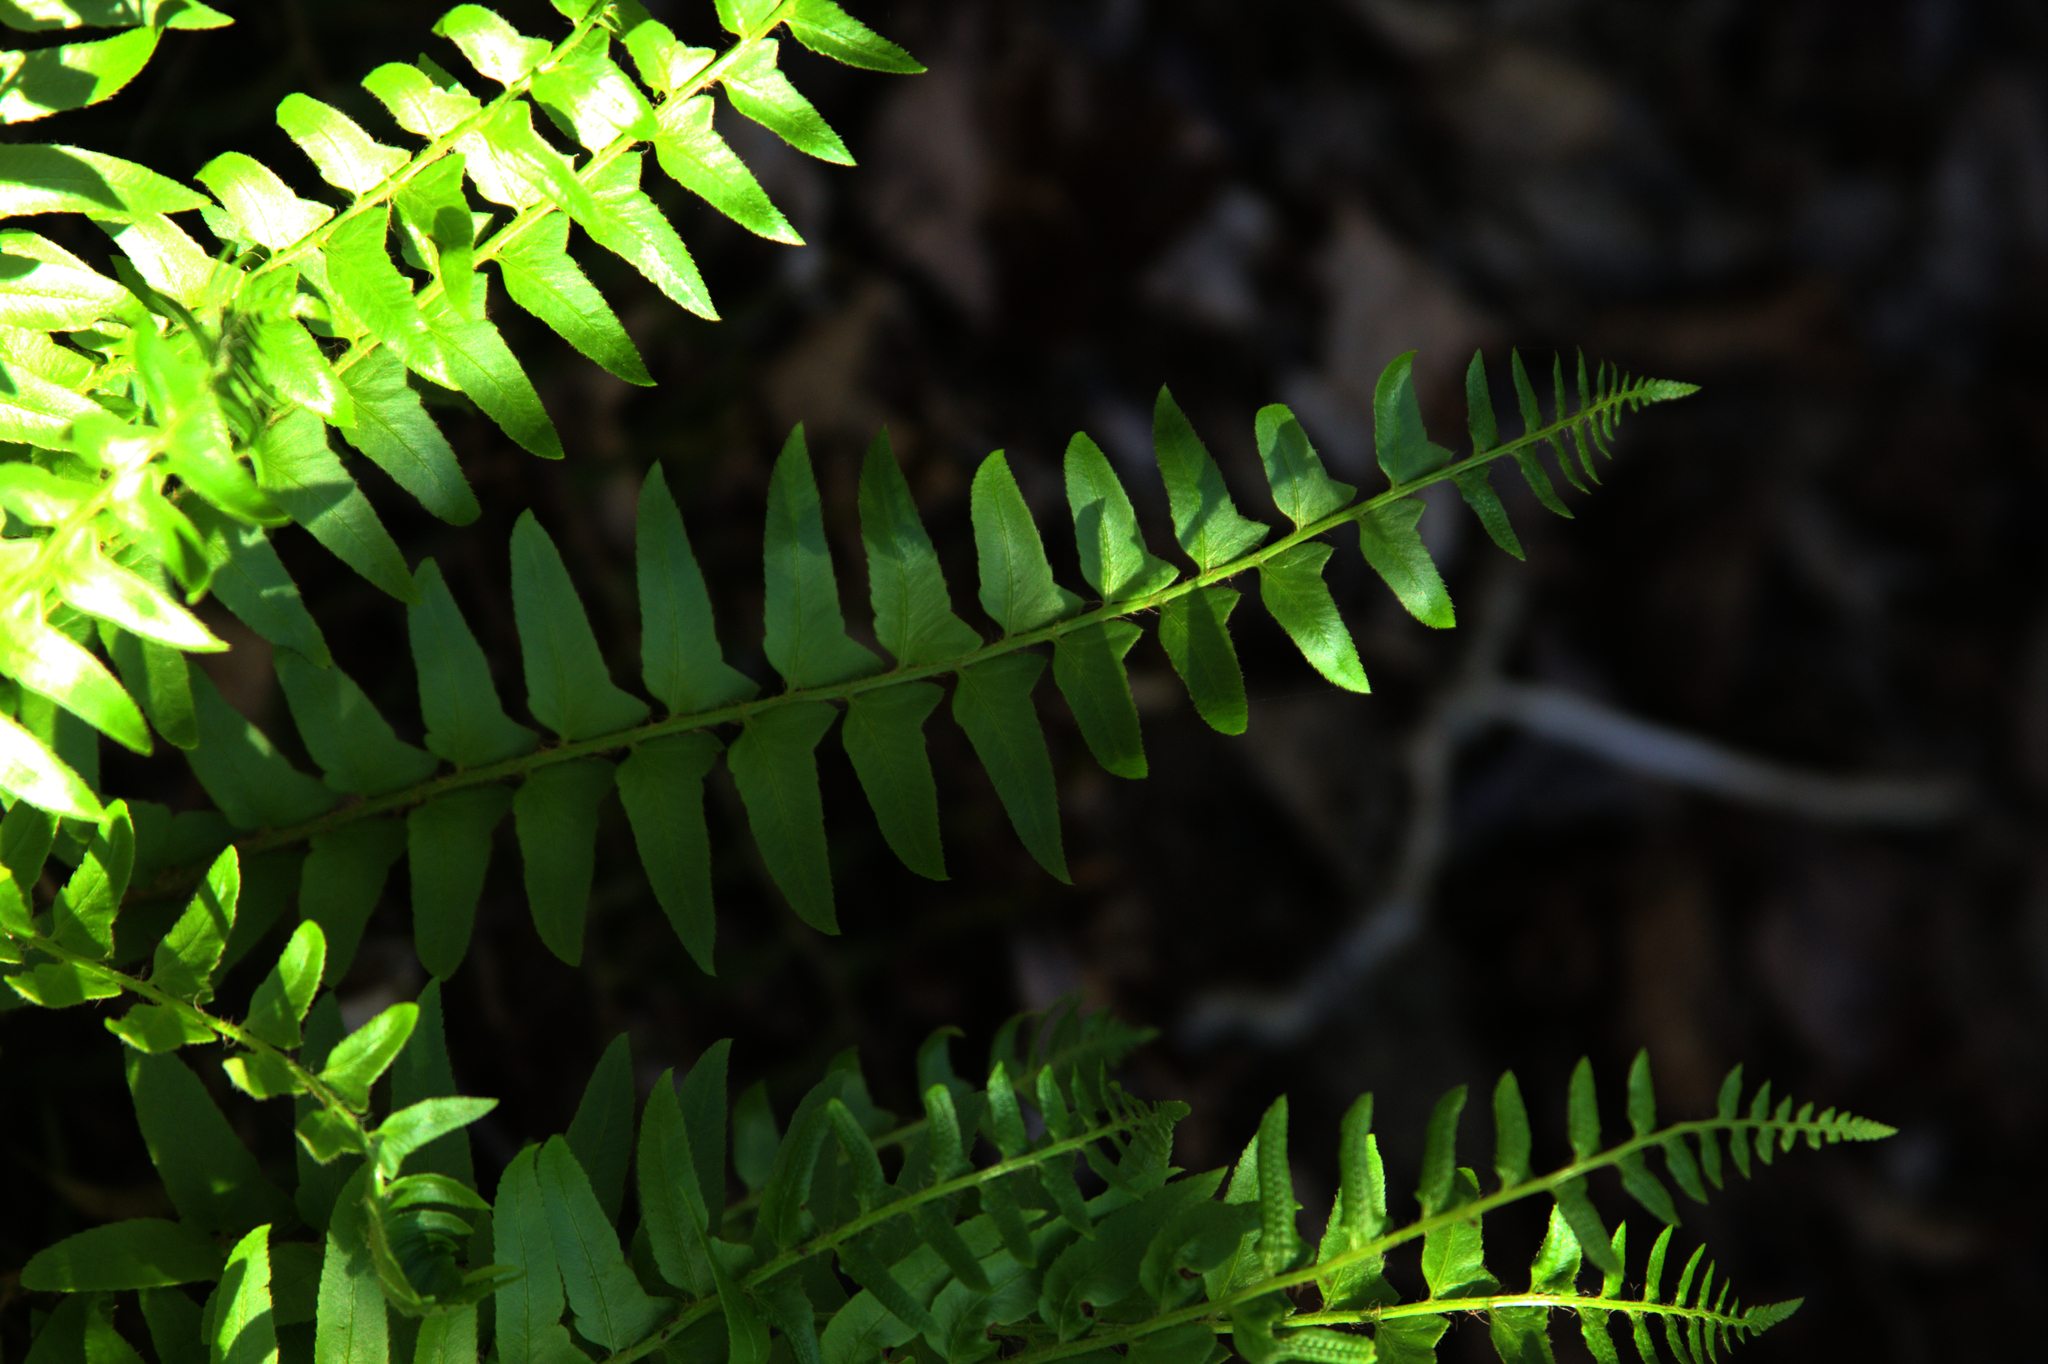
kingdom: Plantae
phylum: Tracheophyta
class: Polypodiopsida
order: Polypodiales
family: Dryopteridaceae
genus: Polystichum
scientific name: Polystichum acrostichoides
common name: Christmas fern
